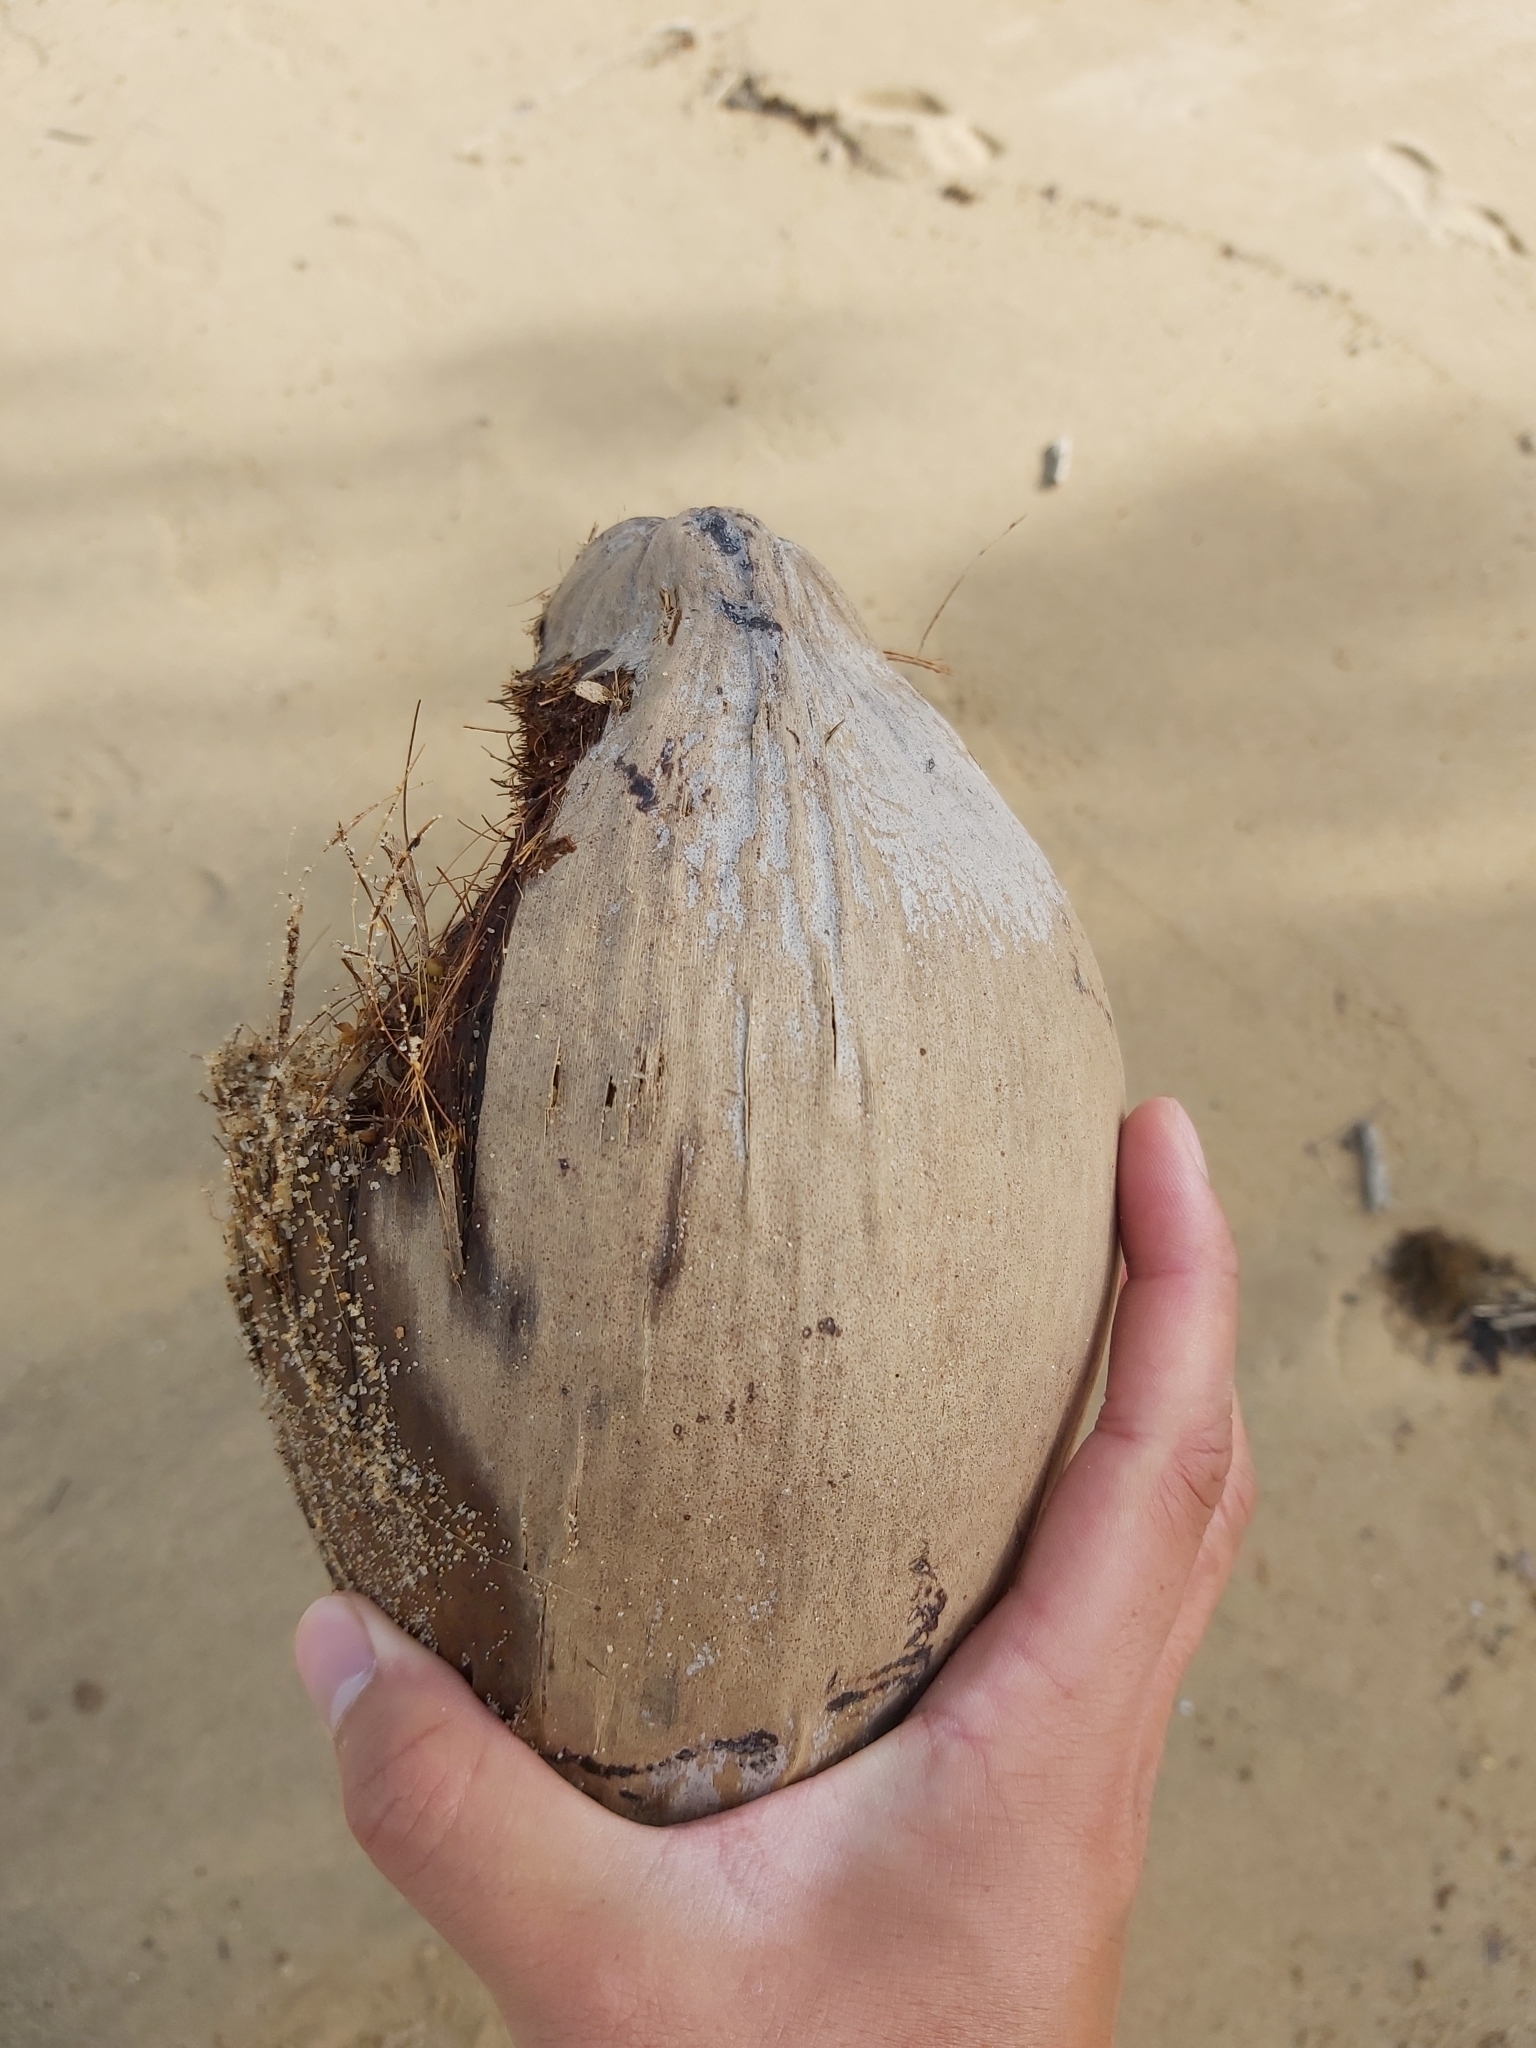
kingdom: Plantae
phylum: Tracheophyta
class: Liliopsida
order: Arecales
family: Arecaceae
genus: Cocos
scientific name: Cocos nucifera
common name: Coconut palm
